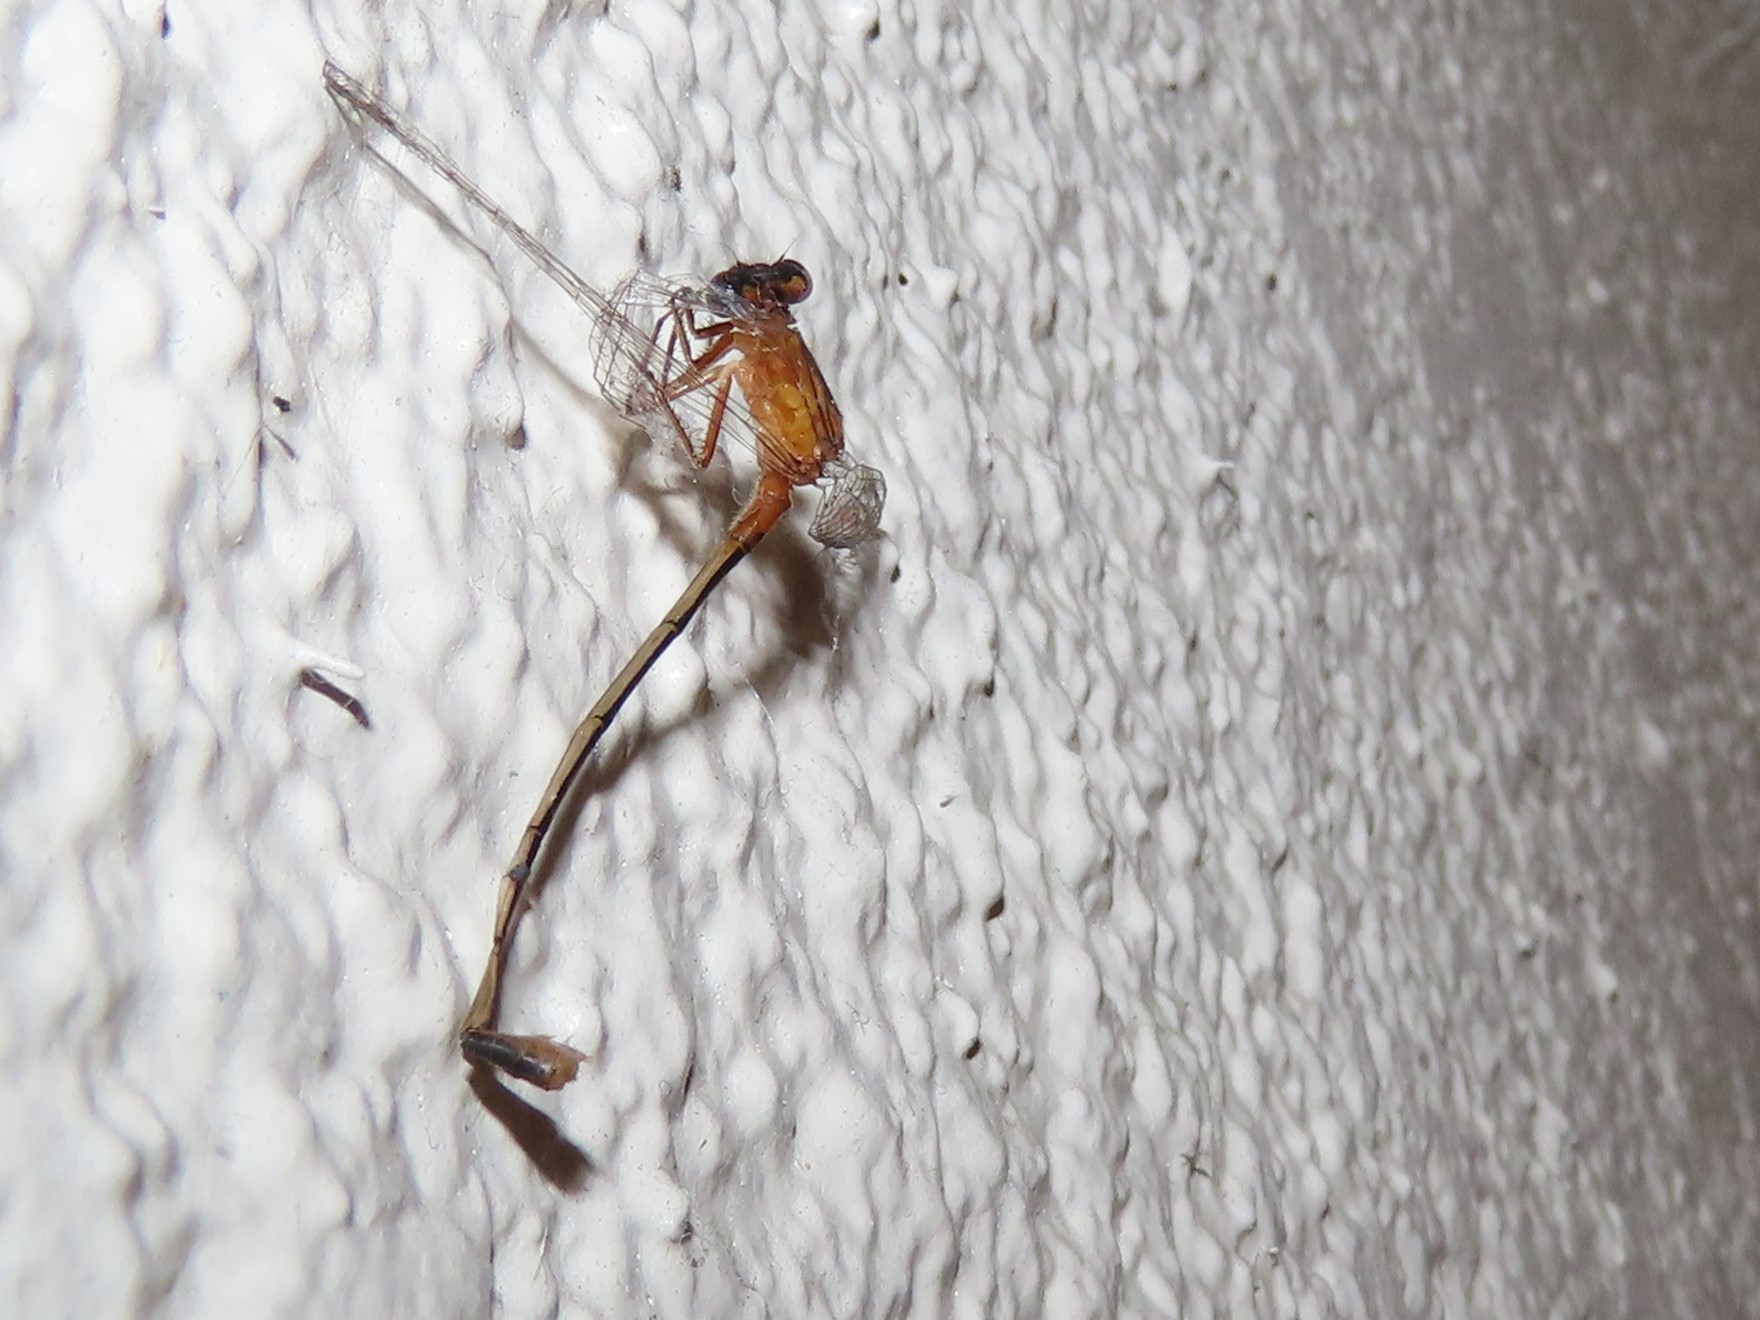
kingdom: Animalia
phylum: Arthropoda
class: Insecta
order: Odonata
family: Coenagrionidae
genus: Ischnura
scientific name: Ischnura ramburii
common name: Rambur's forktail
